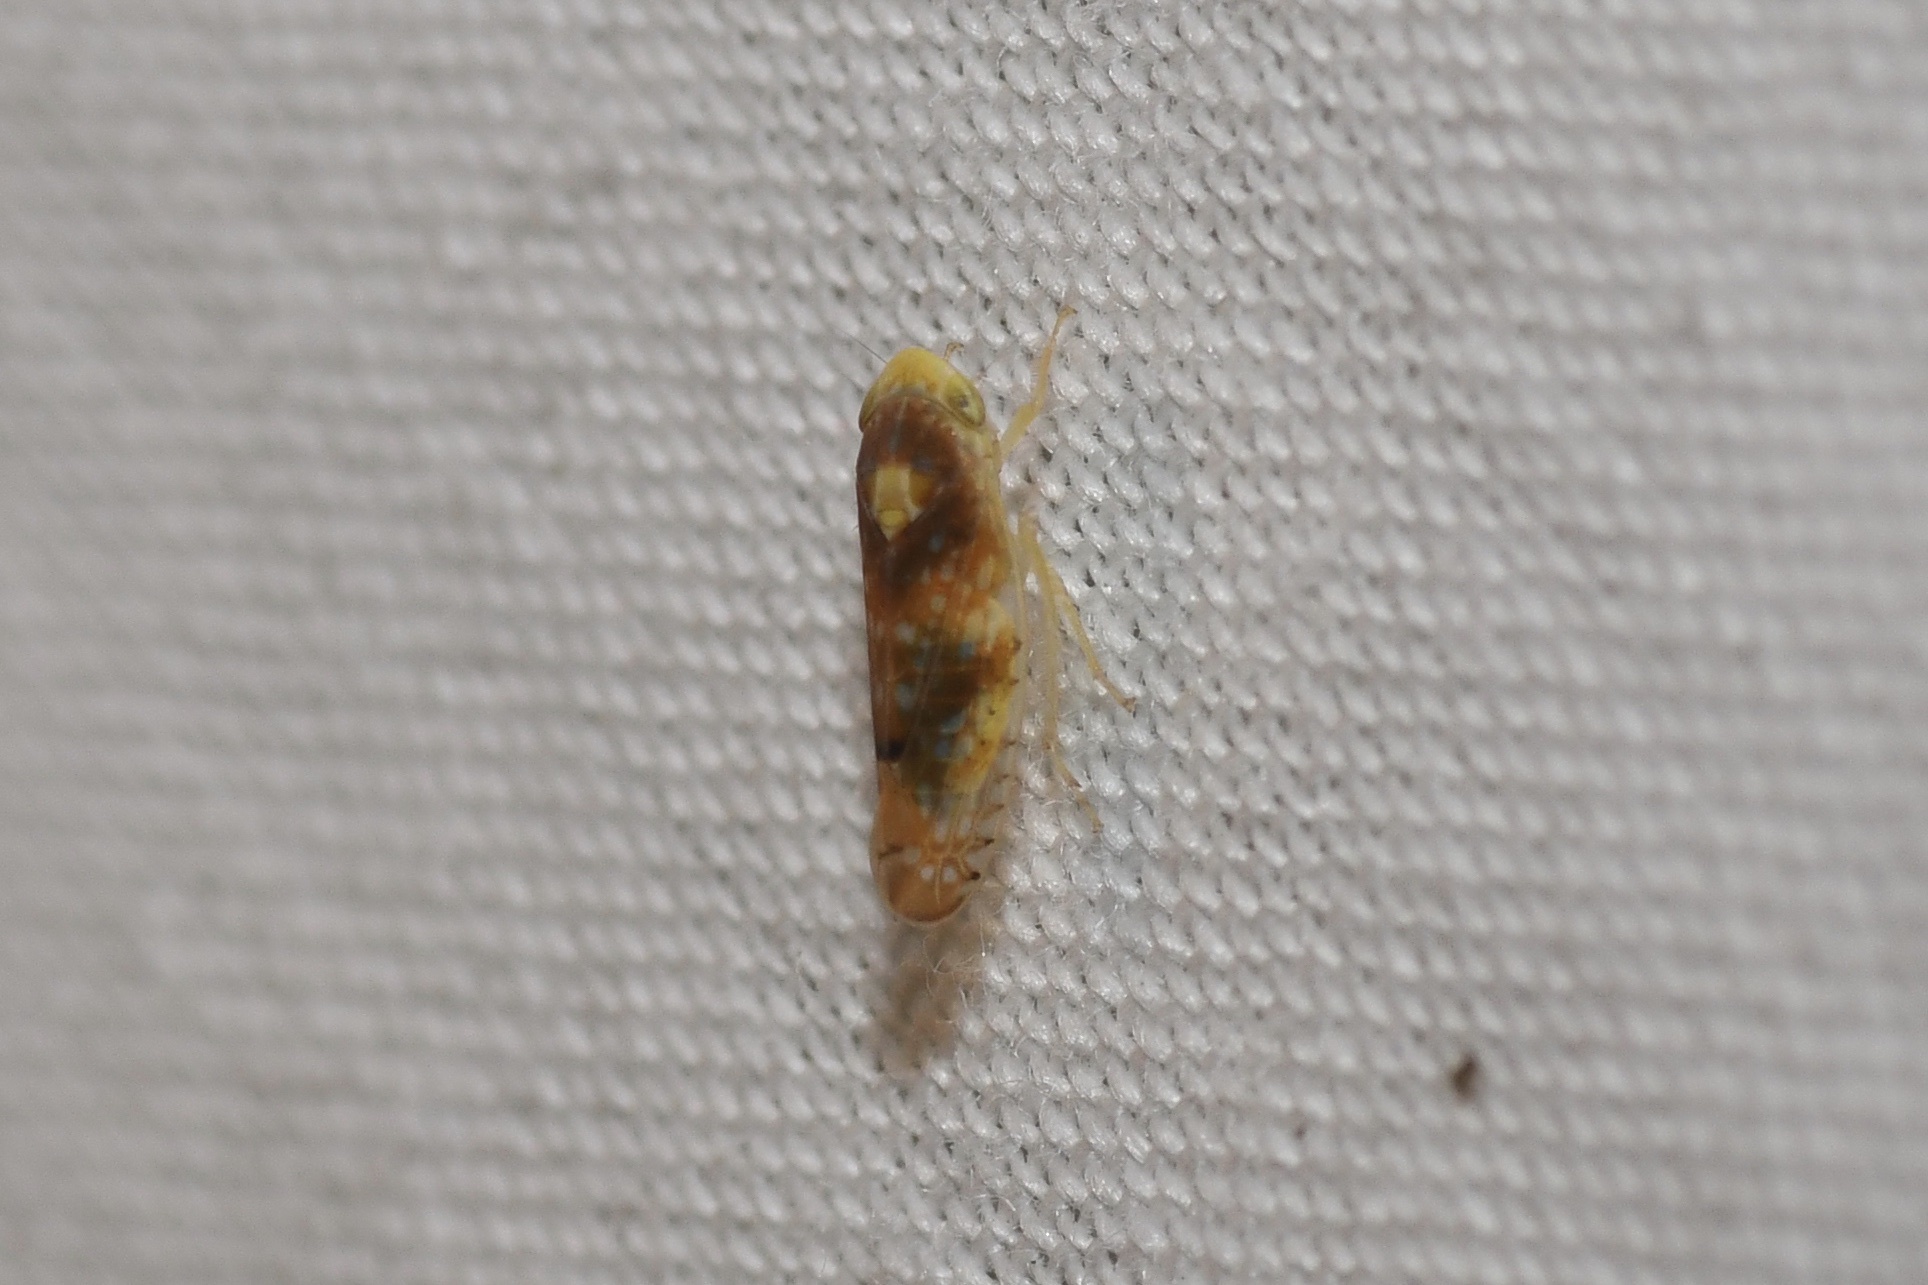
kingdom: Animalia
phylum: Arthropoda
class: Insecta
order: Hemiptera
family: Cicadellidae
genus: Fitchana
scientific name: Fitchana vitellina
